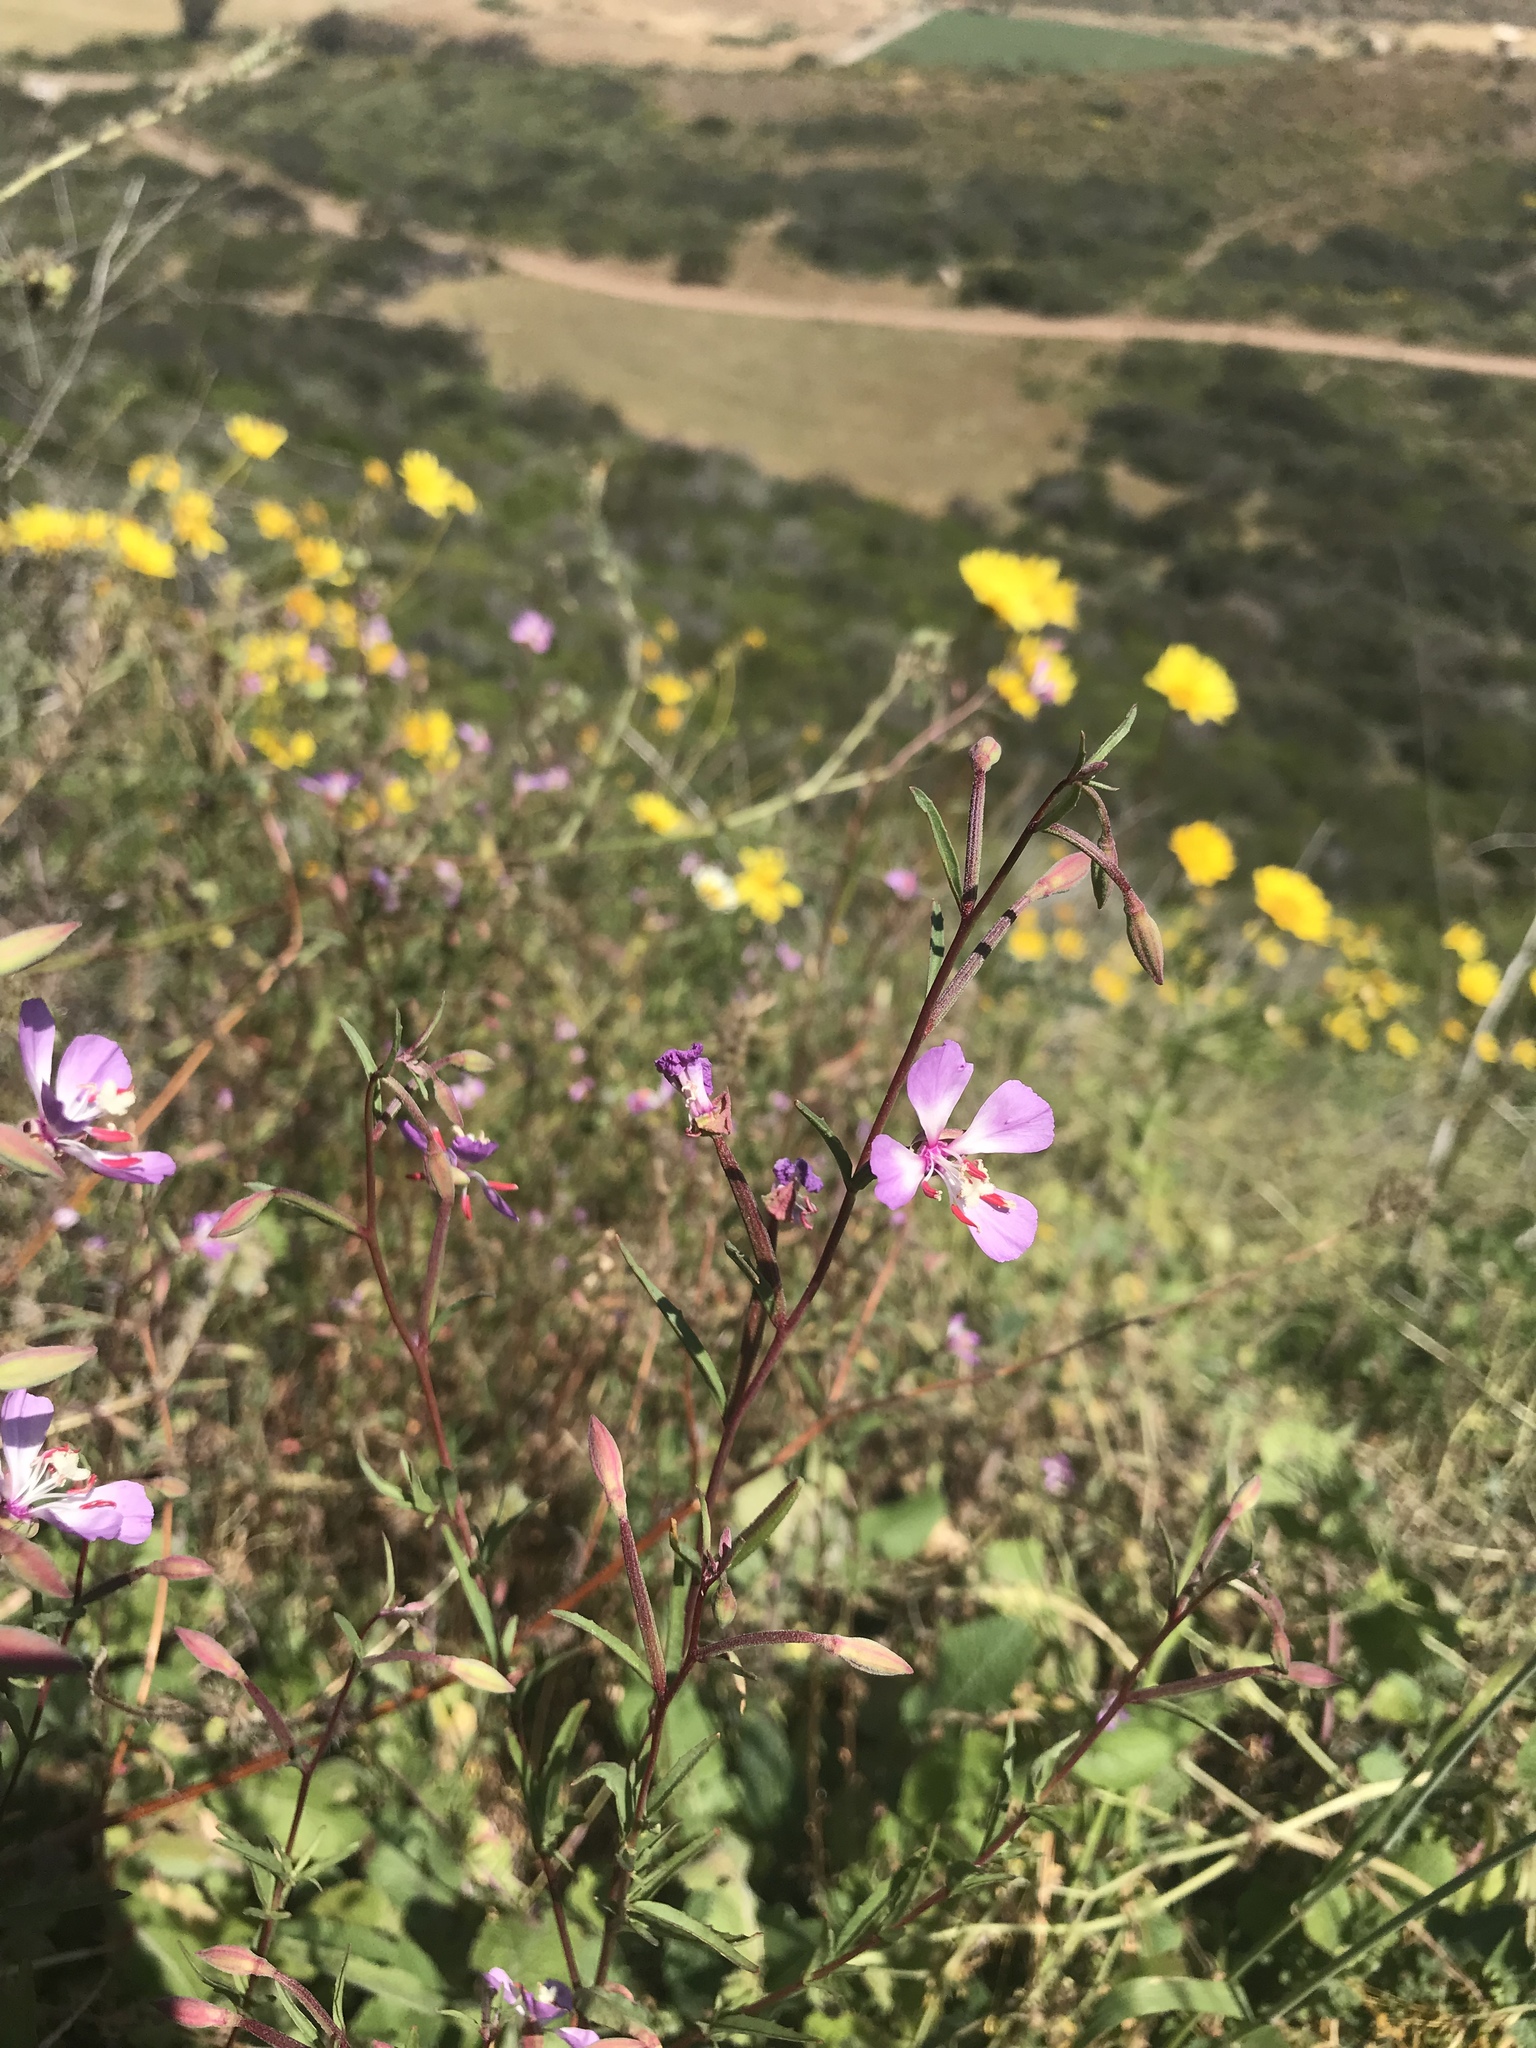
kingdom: Plantae
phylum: Tracheophyta
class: Magnoliopsida
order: Myrtales
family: Onagraceae
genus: Clarkia
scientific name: Clarkia delicata
